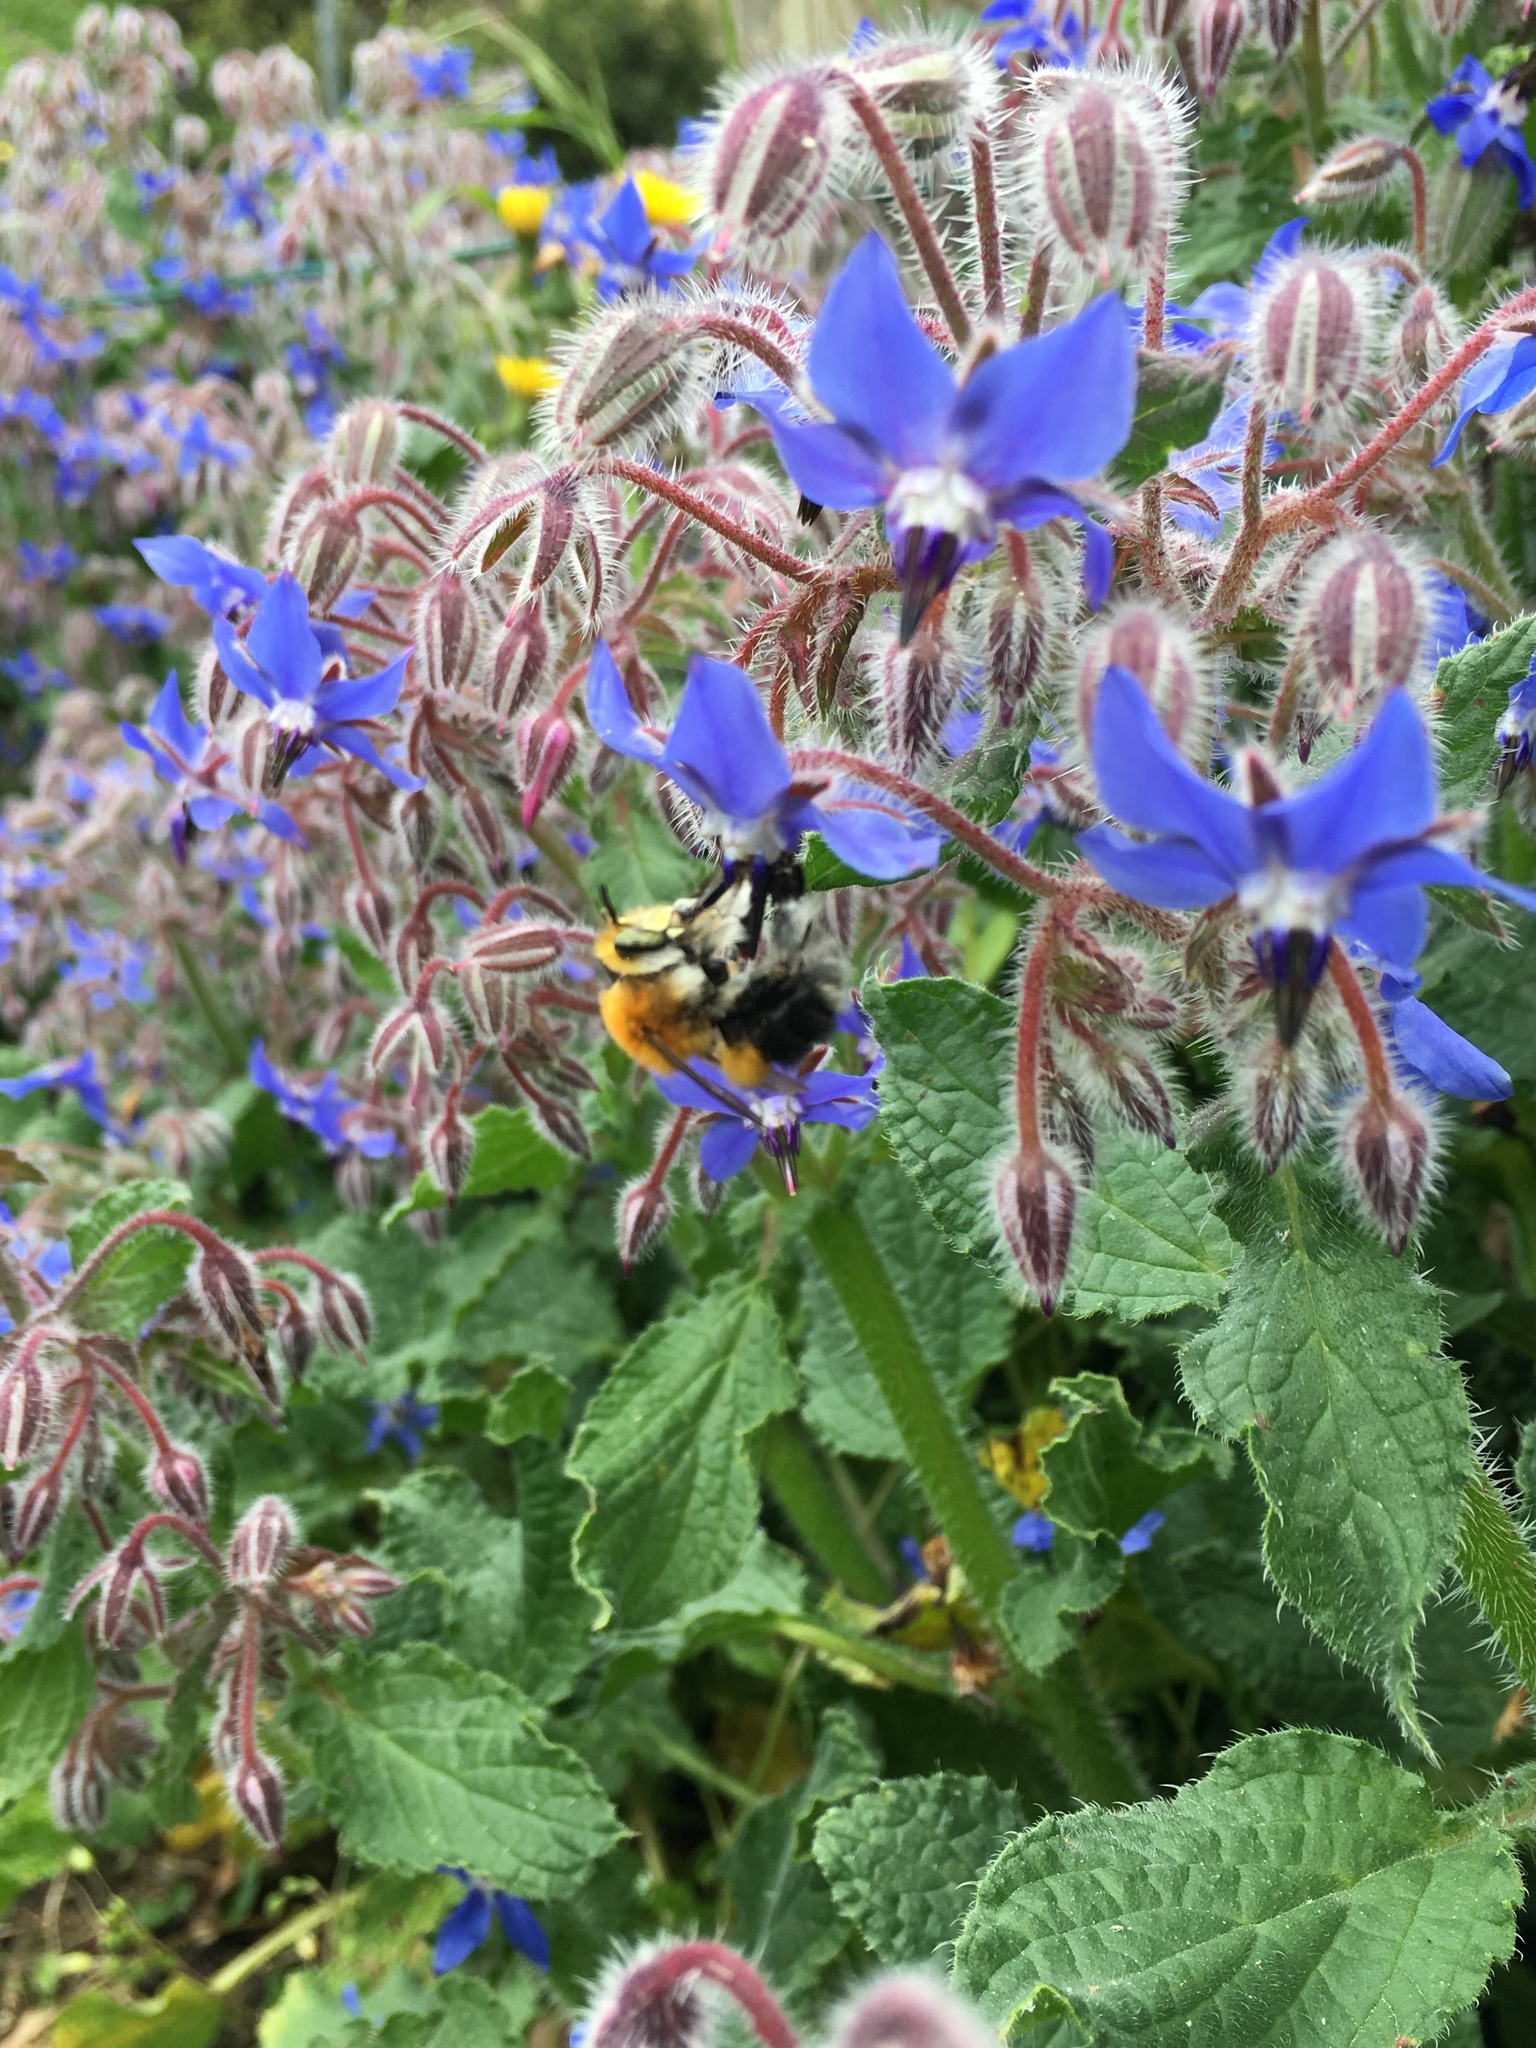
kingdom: Animalia
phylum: Arthropoda
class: Insecta
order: Hymenoptera
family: Apidae
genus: Habropoda
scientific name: Habropoda tarsata
